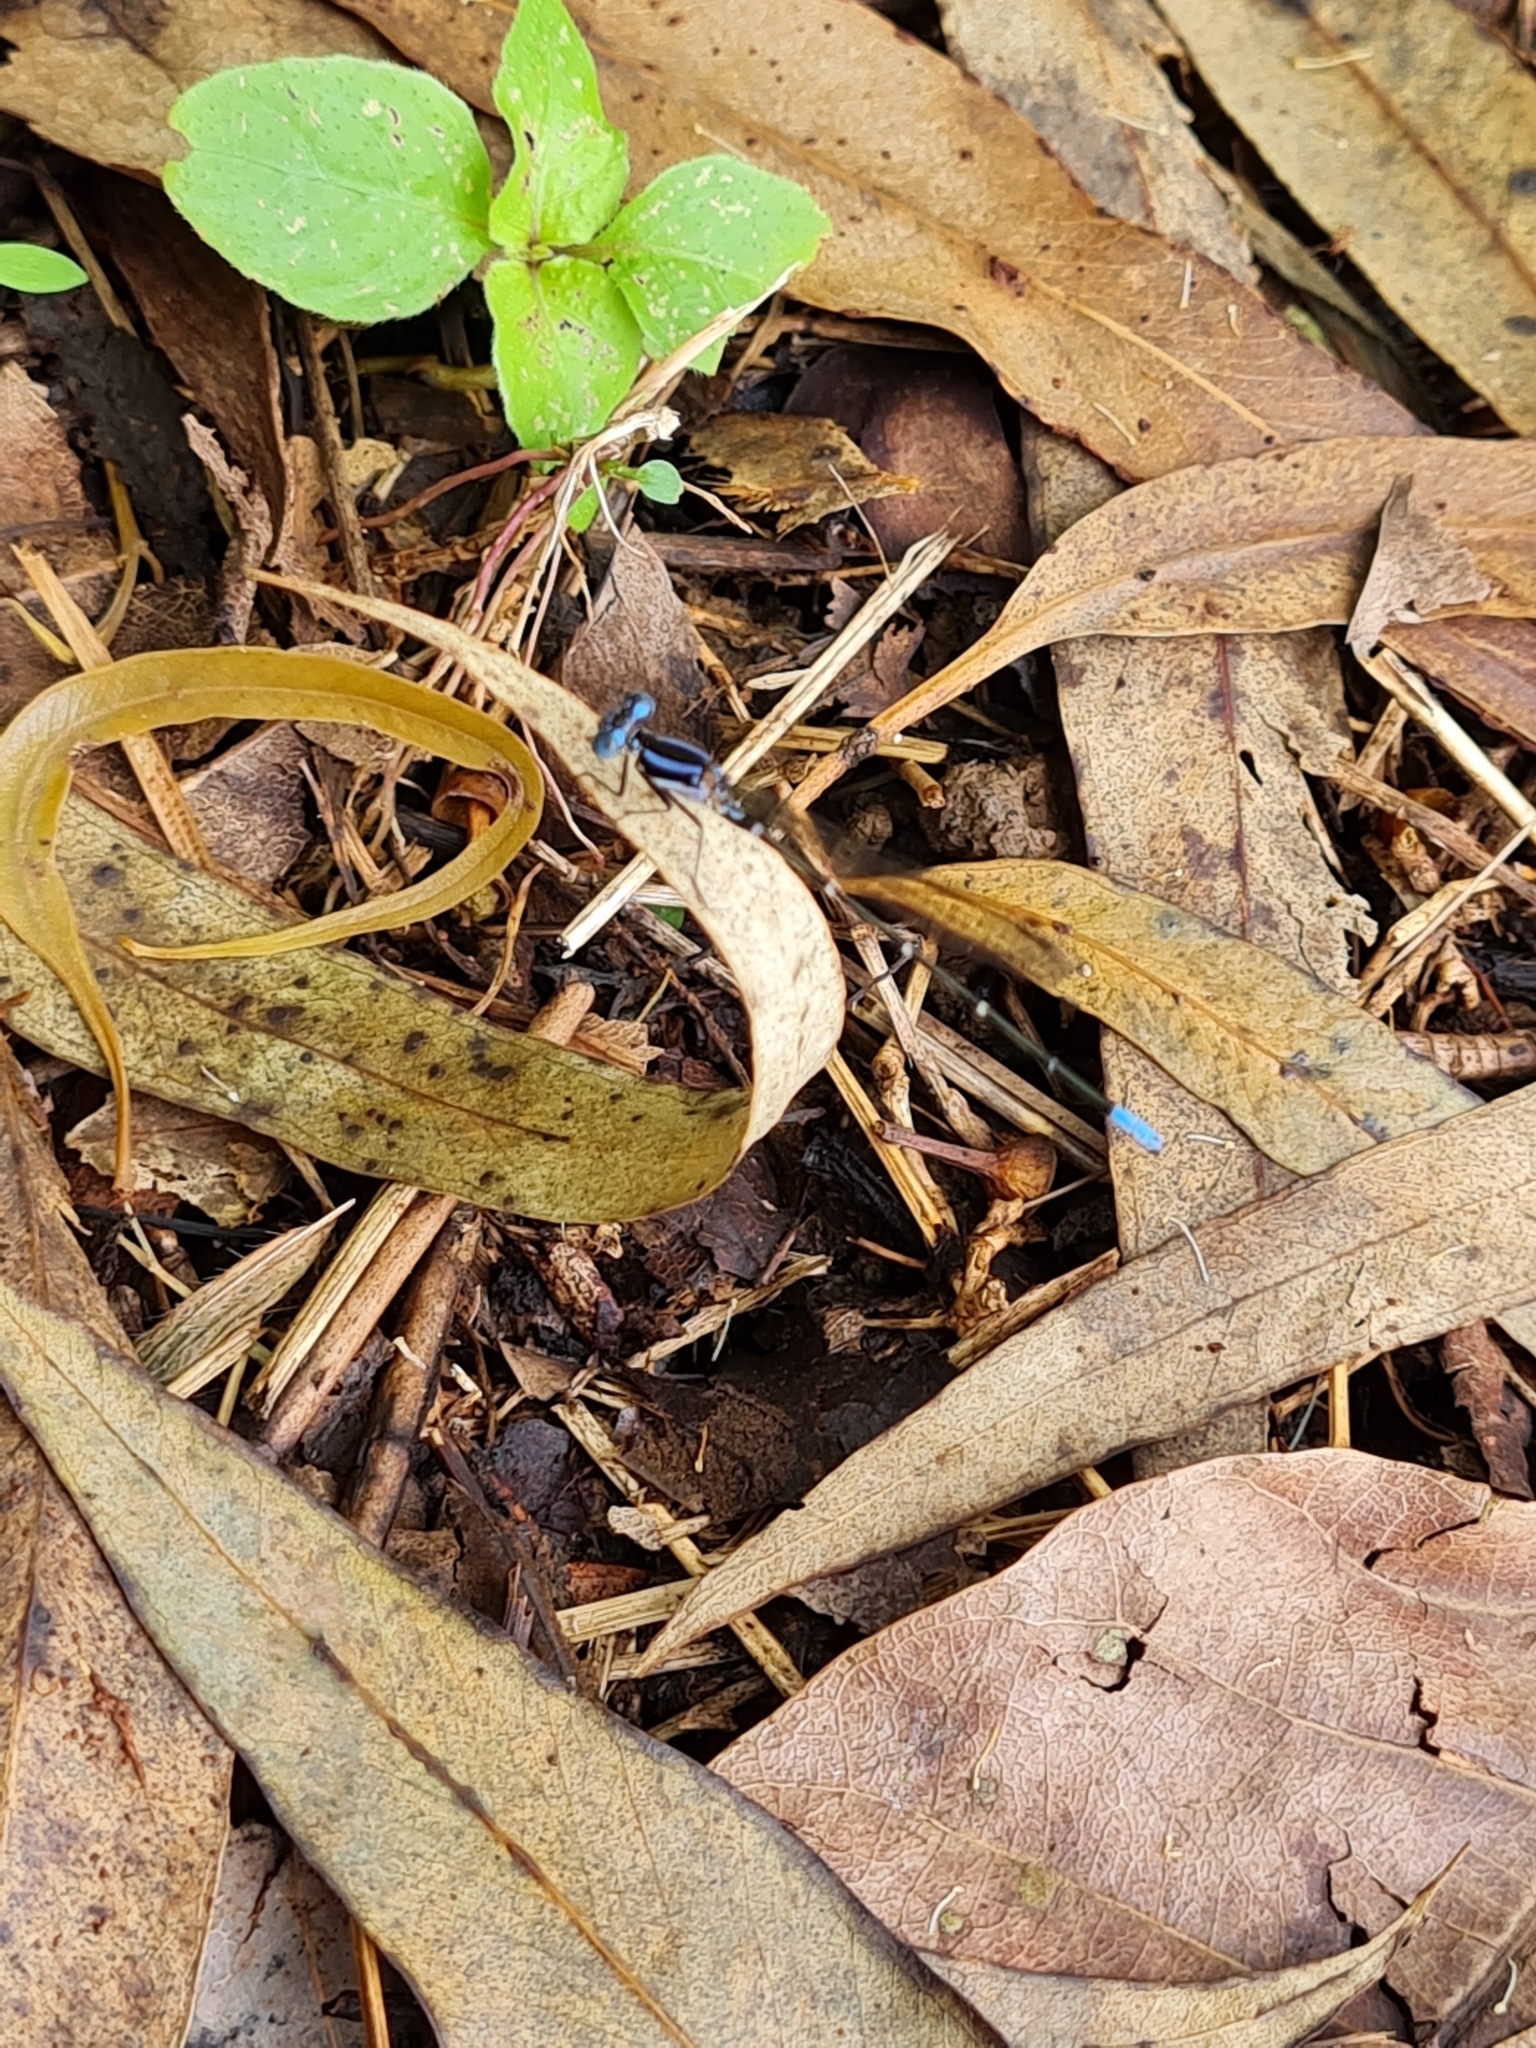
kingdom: Animalia
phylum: Arthropoda
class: Insecta
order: Odonata
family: Coenagrionidae
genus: Argia
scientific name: Argia pulla
